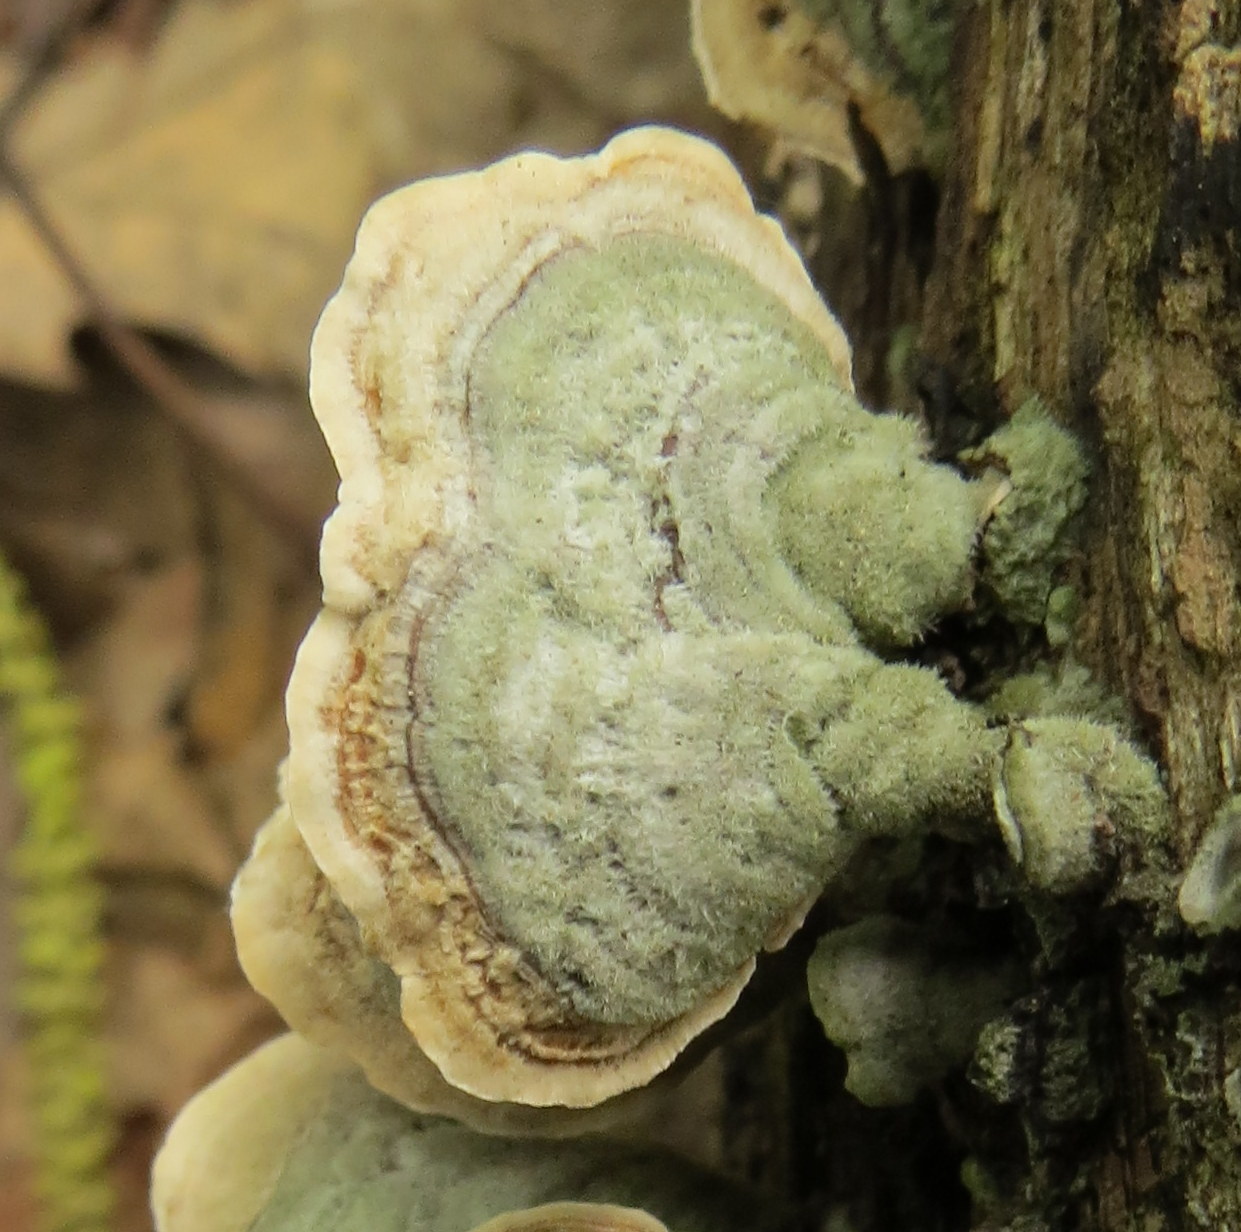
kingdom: Fungi
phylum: Basidiomycota
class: Agaricomycetes
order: Russulales
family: Stereaceae
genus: Stereum
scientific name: Stereum ostrea
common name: False turkeytail
